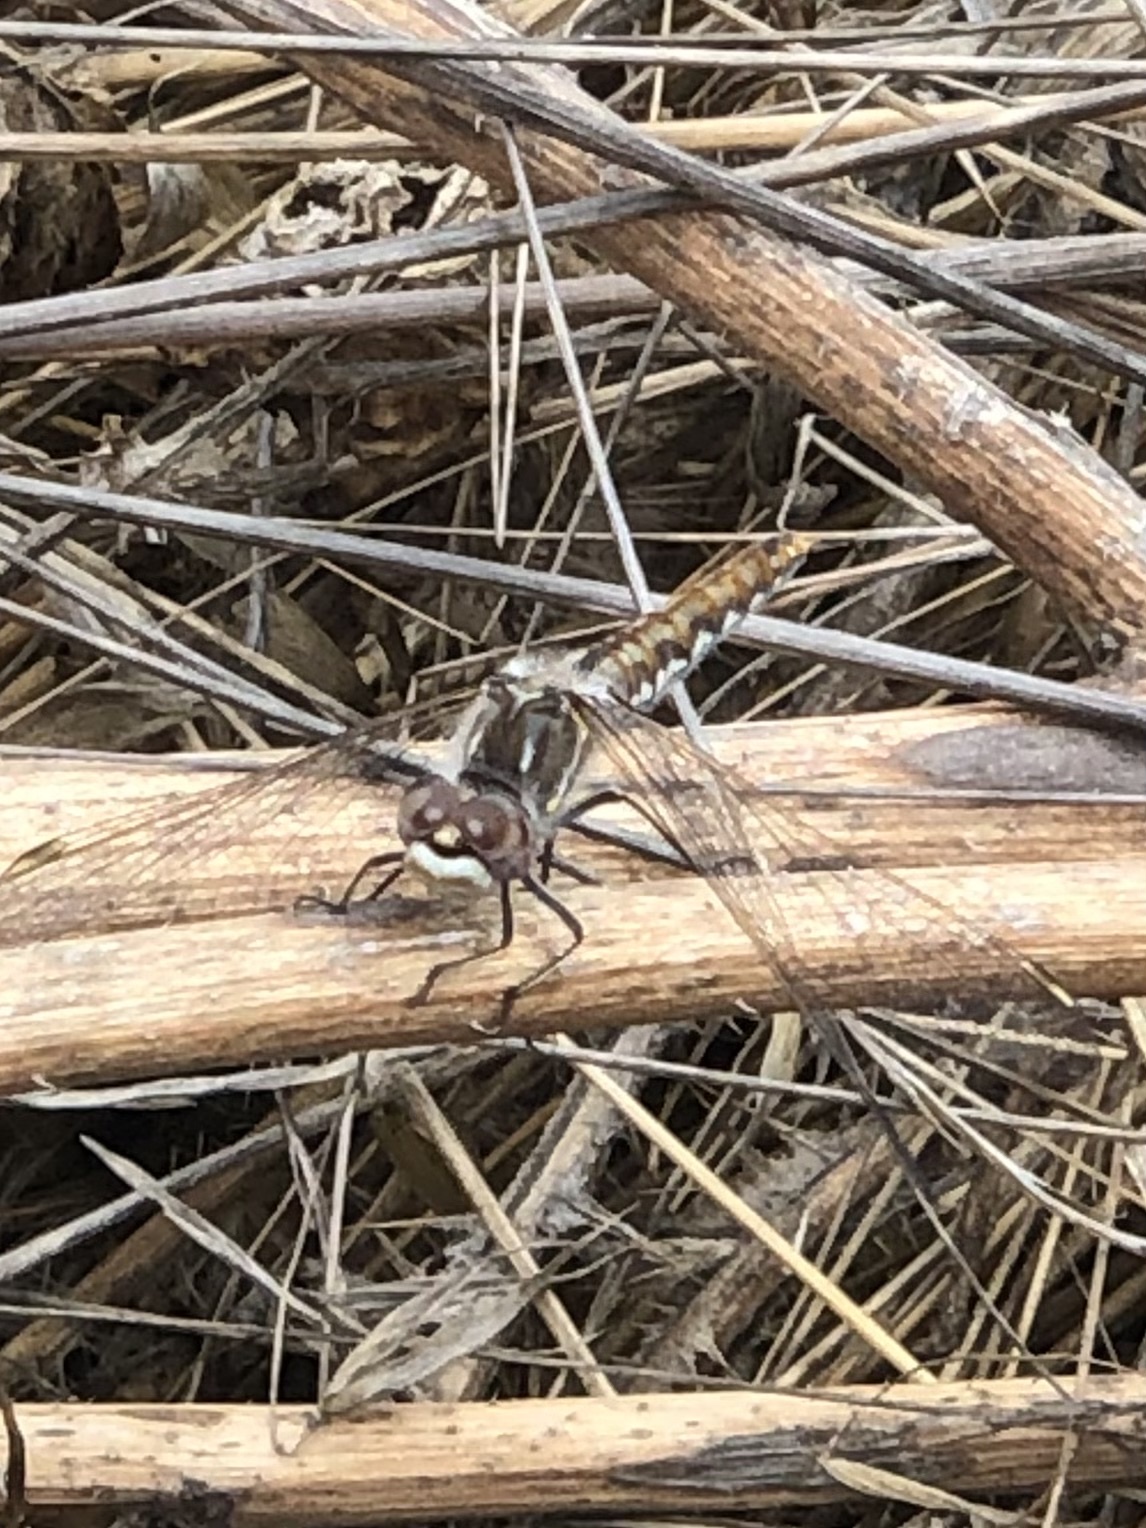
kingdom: Animalia
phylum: Arthropoda
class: Insecta
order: Odonata
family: Libellulidae
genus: Sympetrum
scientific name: Sympetrum corruptum
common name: Variegated meadowhawk
